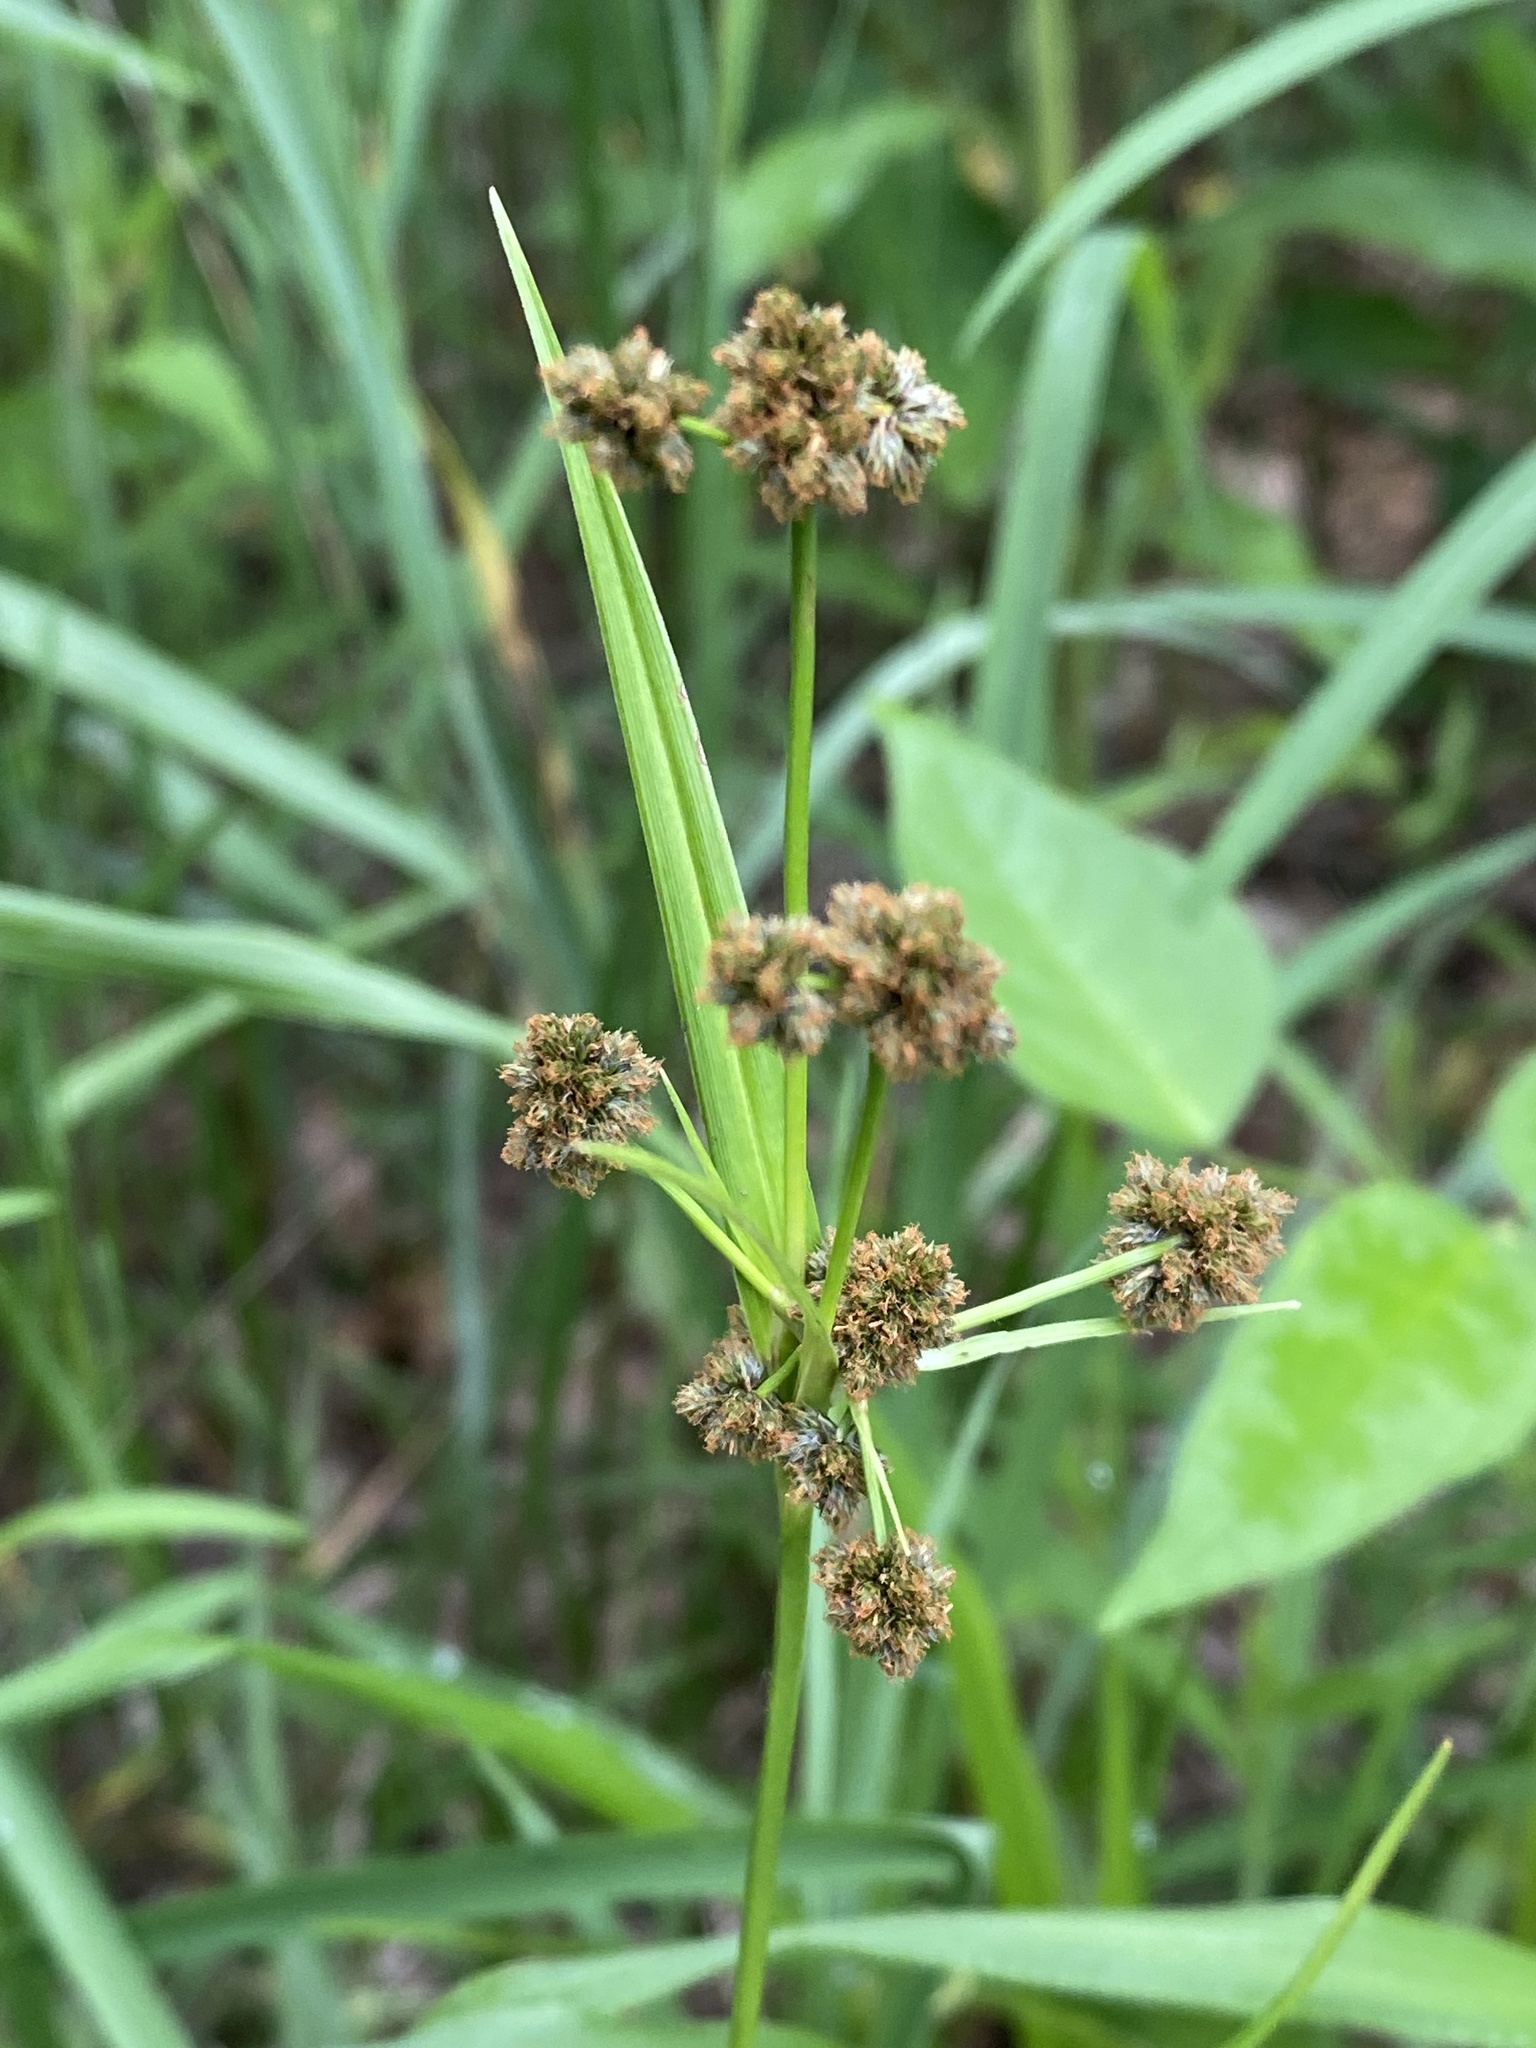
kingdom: Plantae
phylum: Tracheophyta
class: Liliopsida
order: Poales
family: Cyperaceae
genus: Scirpus
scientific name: Scirpus atrovirens
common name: Black bulrush
